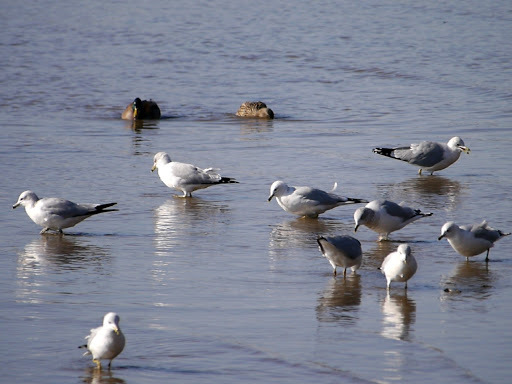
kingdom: Animalia
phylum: Chordata
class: Aves
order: Charadriiformes
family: Laridae
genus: Larus
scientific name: Larus delawarensis
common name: Ring-billed gull
